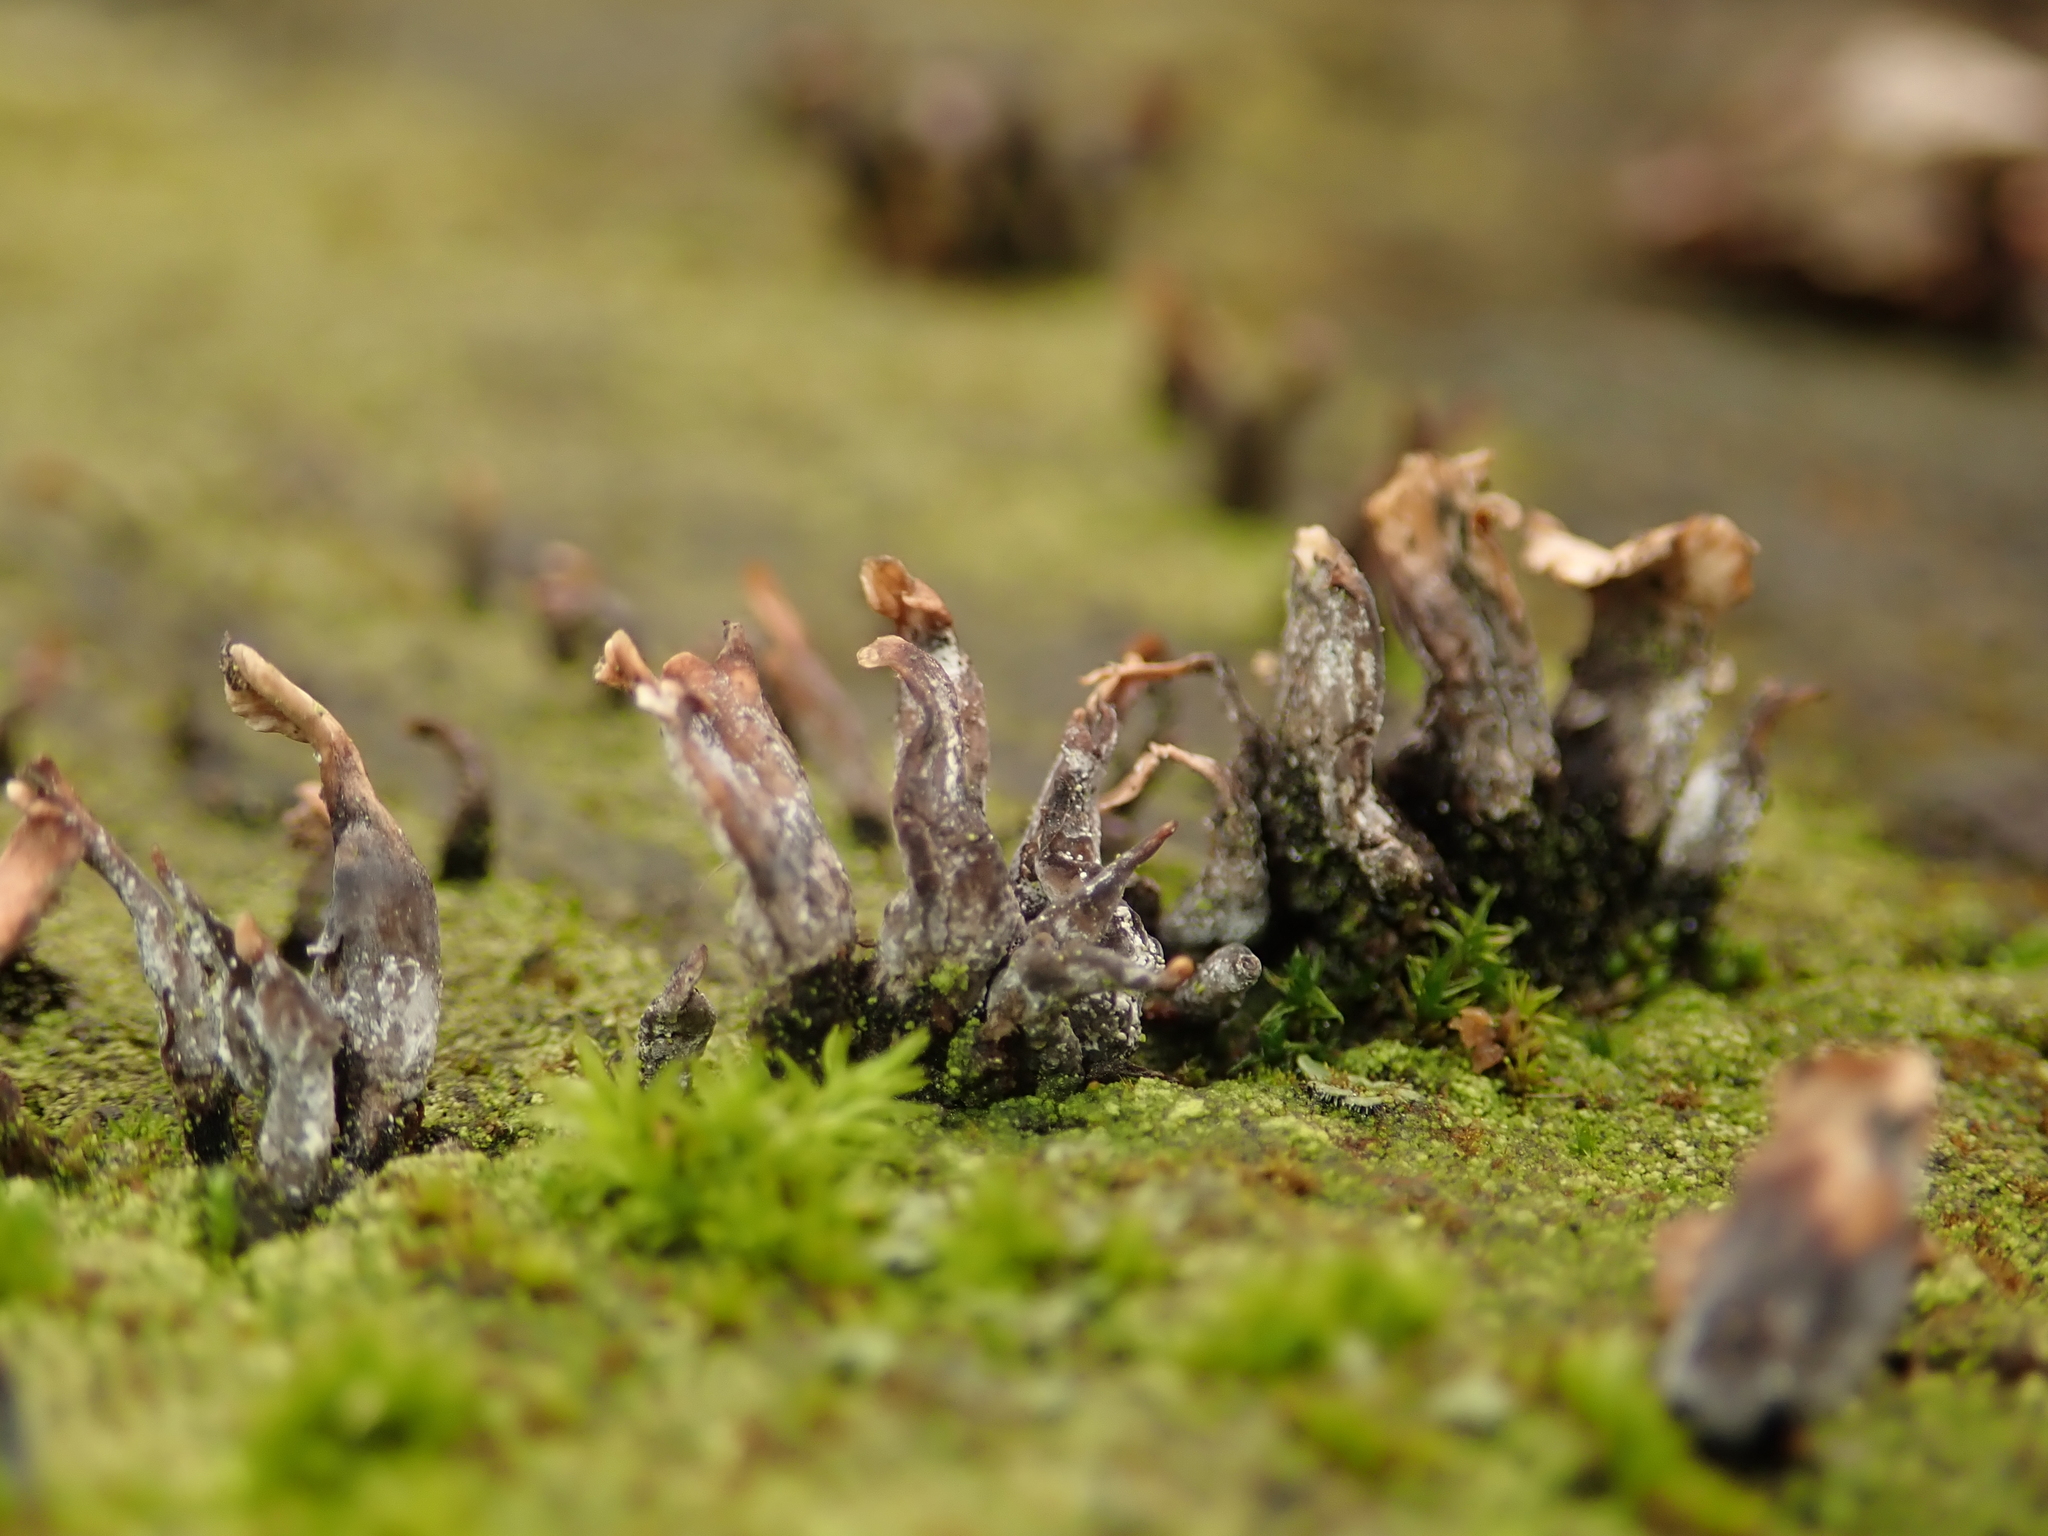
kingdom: Fungi
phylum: Ascomycota
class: Sordariomycetes
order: Xylariales
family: Xylariaceae
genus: Xylaria
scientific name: Xylaria hypoxylon
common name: Candle-snuff fungus
